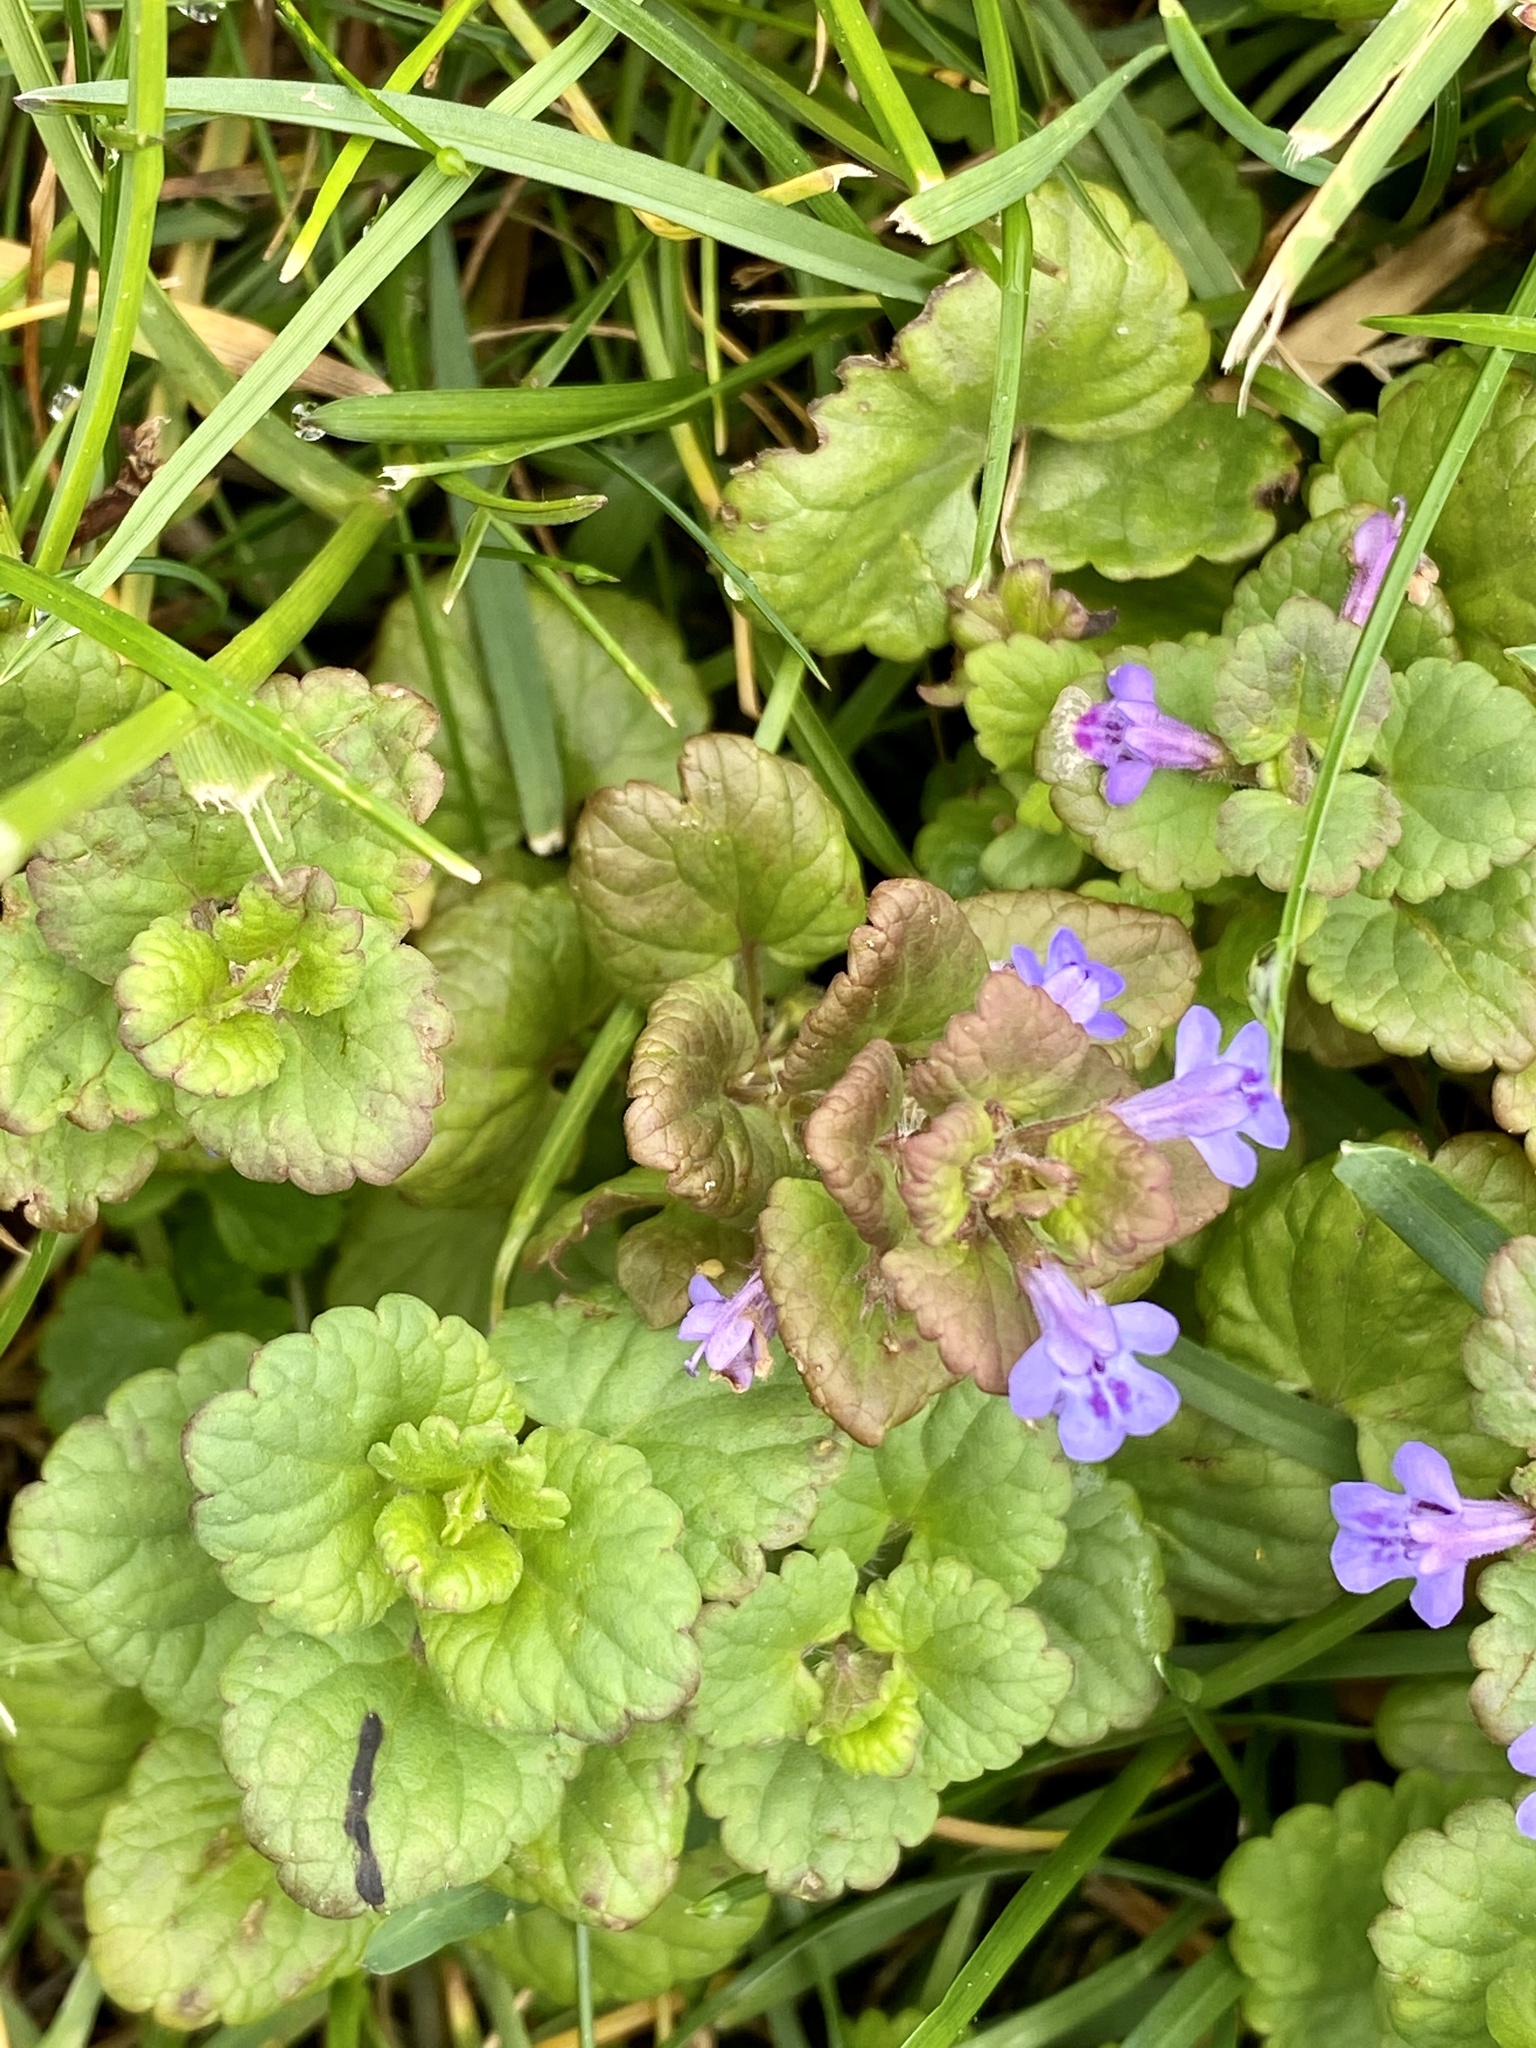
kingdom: Plantae
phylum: Tracheophyta
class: Magnoliopsida
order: Lamiales
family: Lamiaceae
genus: Glechoma
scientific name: Glechoma hederacea
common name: Ground ivy
